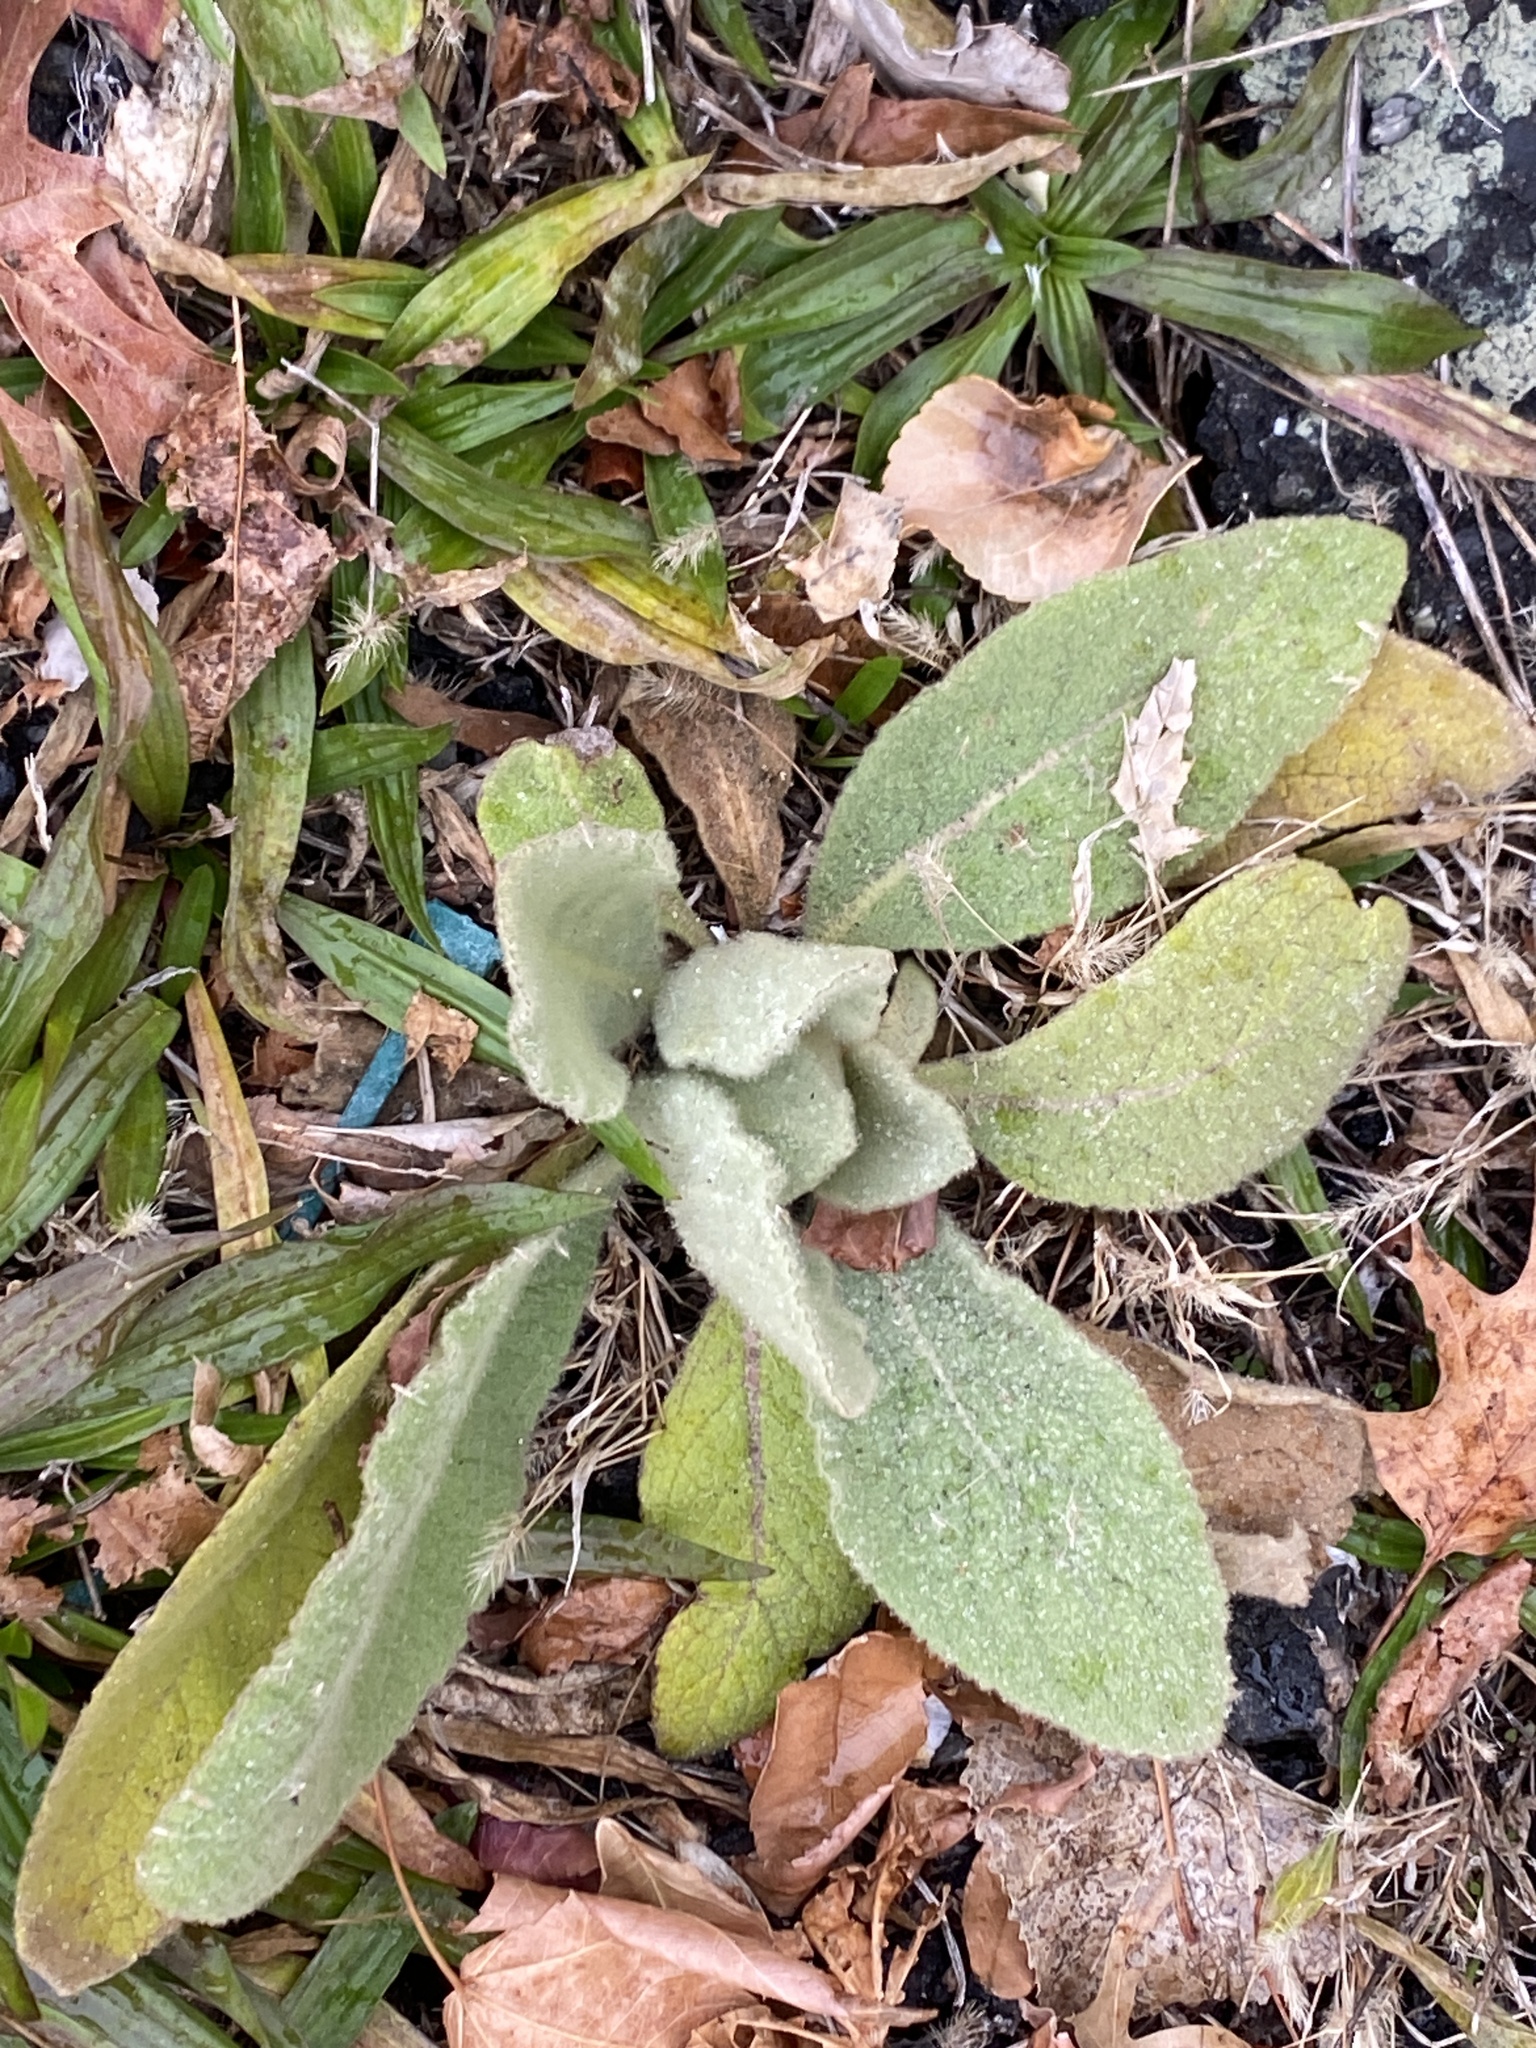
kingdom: Plantae
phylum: Tracheophyta
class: Magnoliopsida
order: Lamiales
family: Scrophulariaceae
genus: Verbascum
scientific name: Verbascum thapsus
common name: Common mullein
